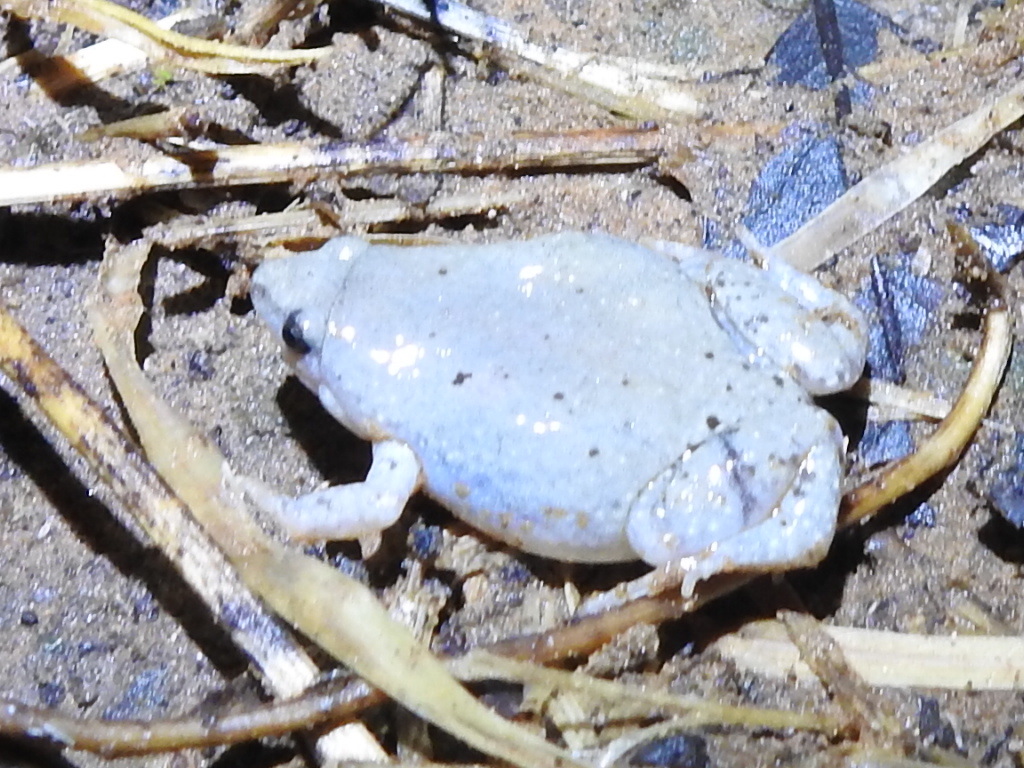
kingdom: Animalia
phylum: Chordata
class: Amphibia
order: Anura
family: Microhylidae
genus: Gastrophryne
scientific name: Gastrophryne olivacea
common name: Great plains narrow-mouthed toad
